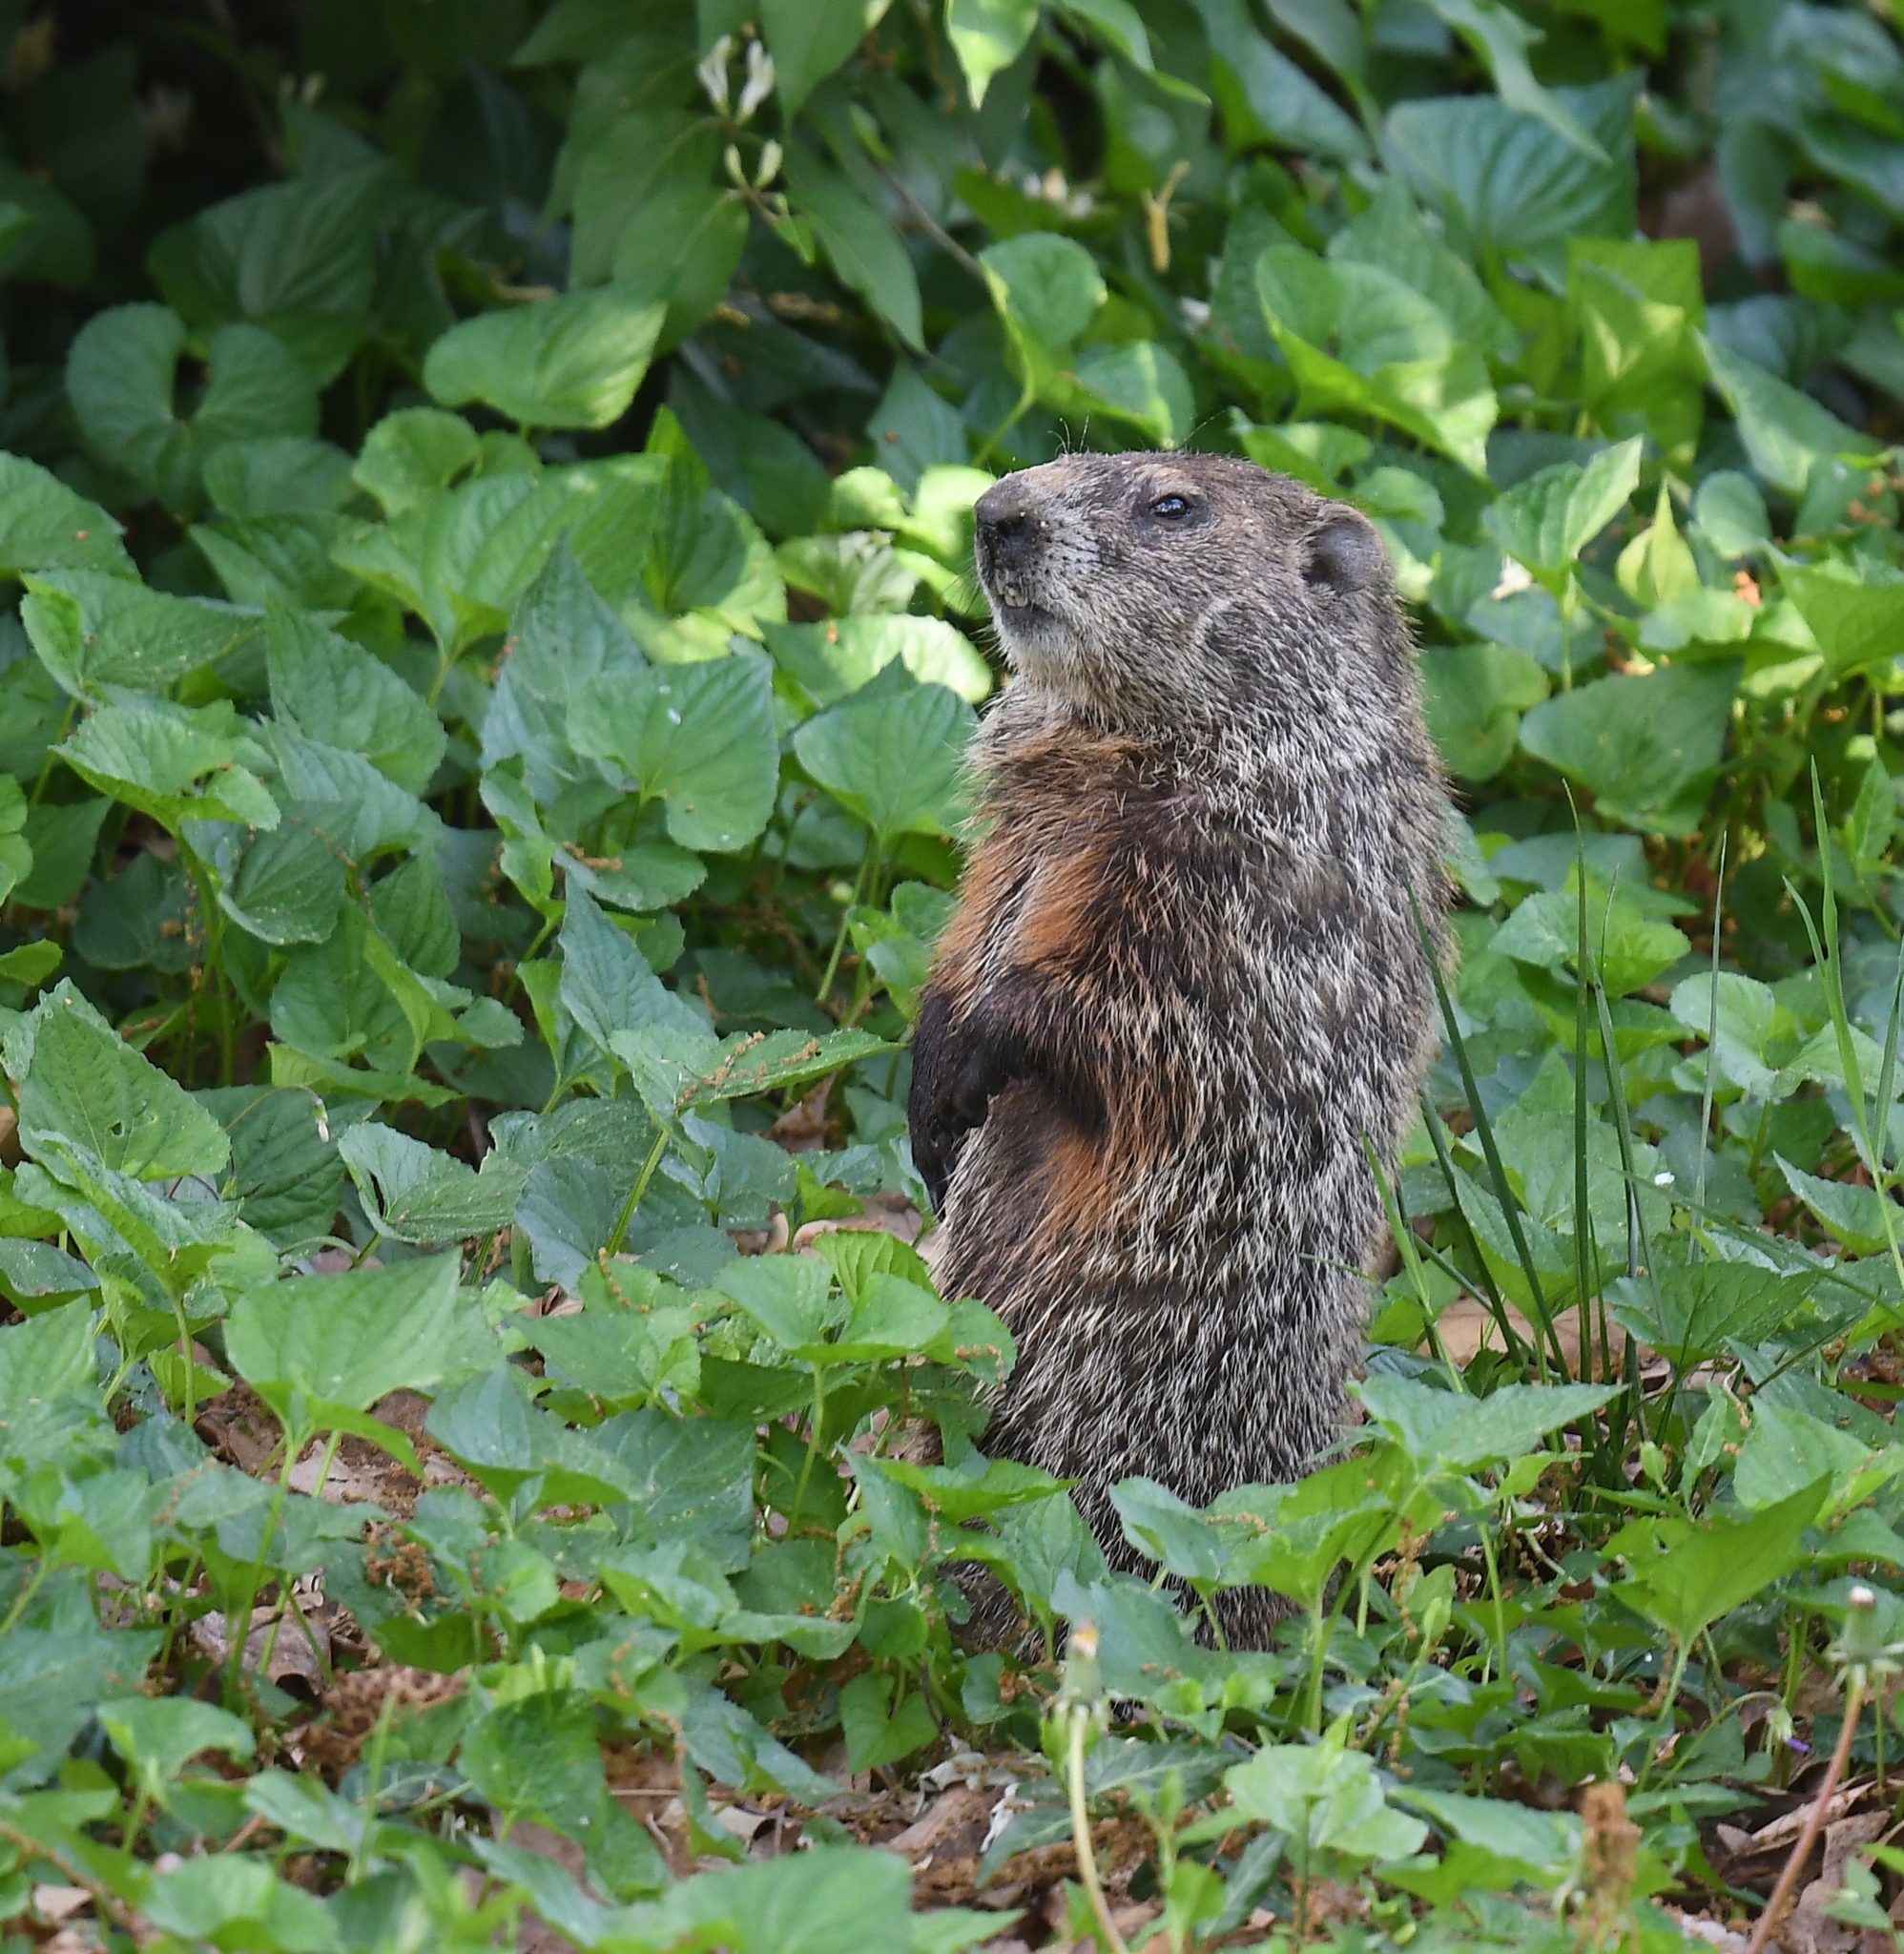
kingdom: Animalia
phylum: Chordata
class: Mammalia
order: Rodentia
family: Sciuridae
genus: Marmota
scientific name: Marmota monax
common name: Groundhog
